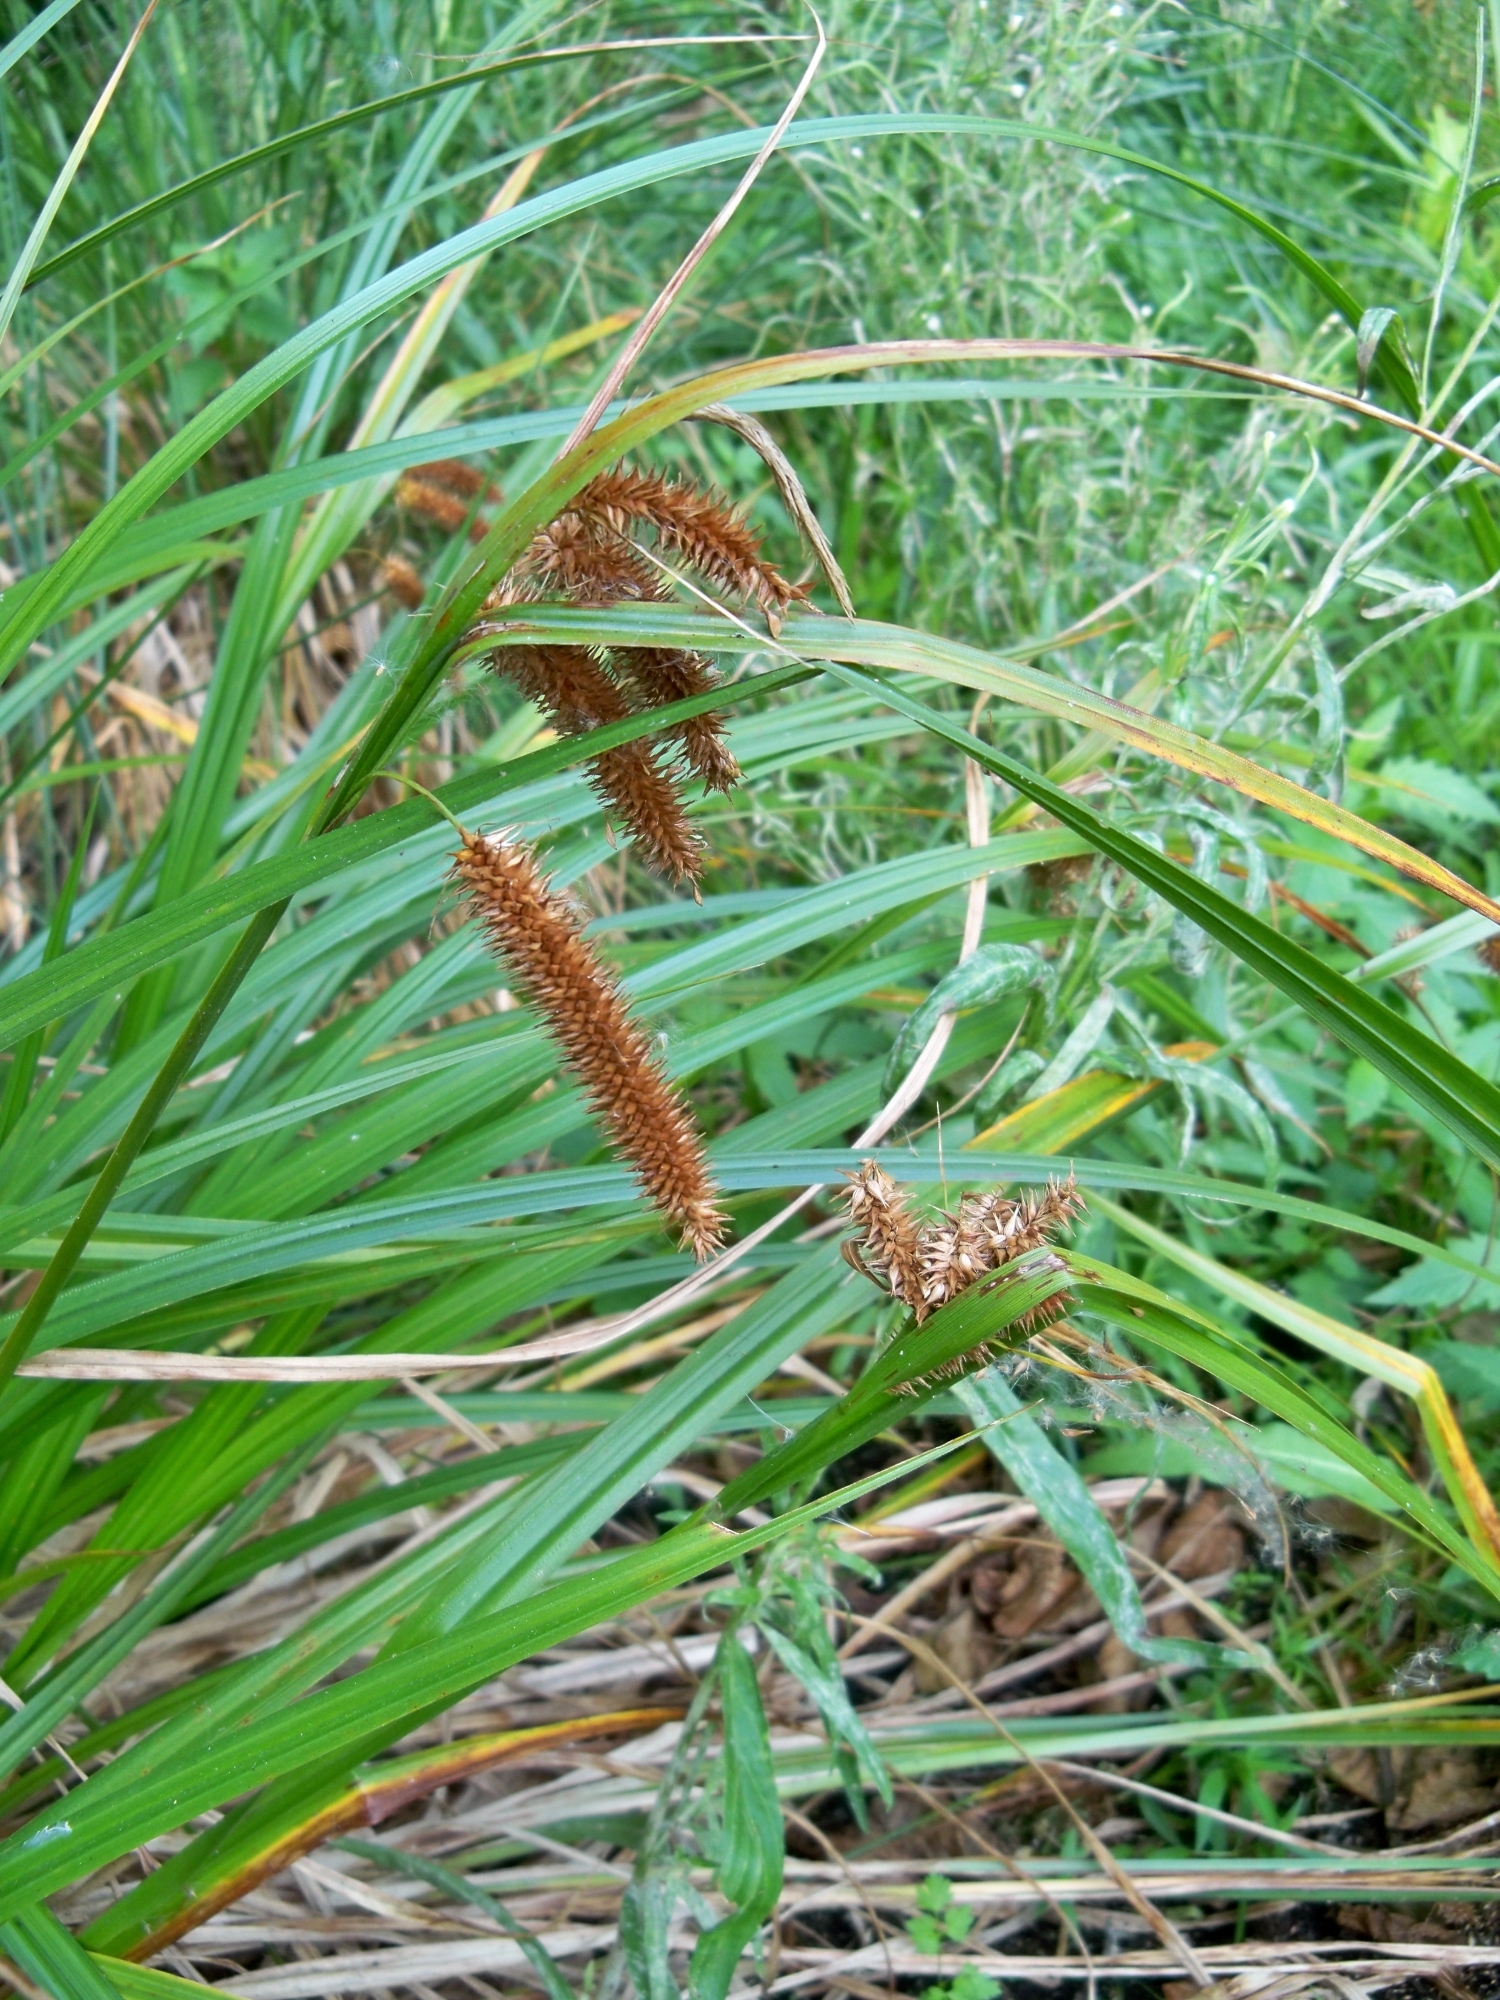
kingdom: Plantae
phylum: Tracheophyta
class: Liliopsida
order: Poales
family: Cyperaceae
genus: Carex
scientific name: Carex pseudocyperus
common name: Cyperus sedge
